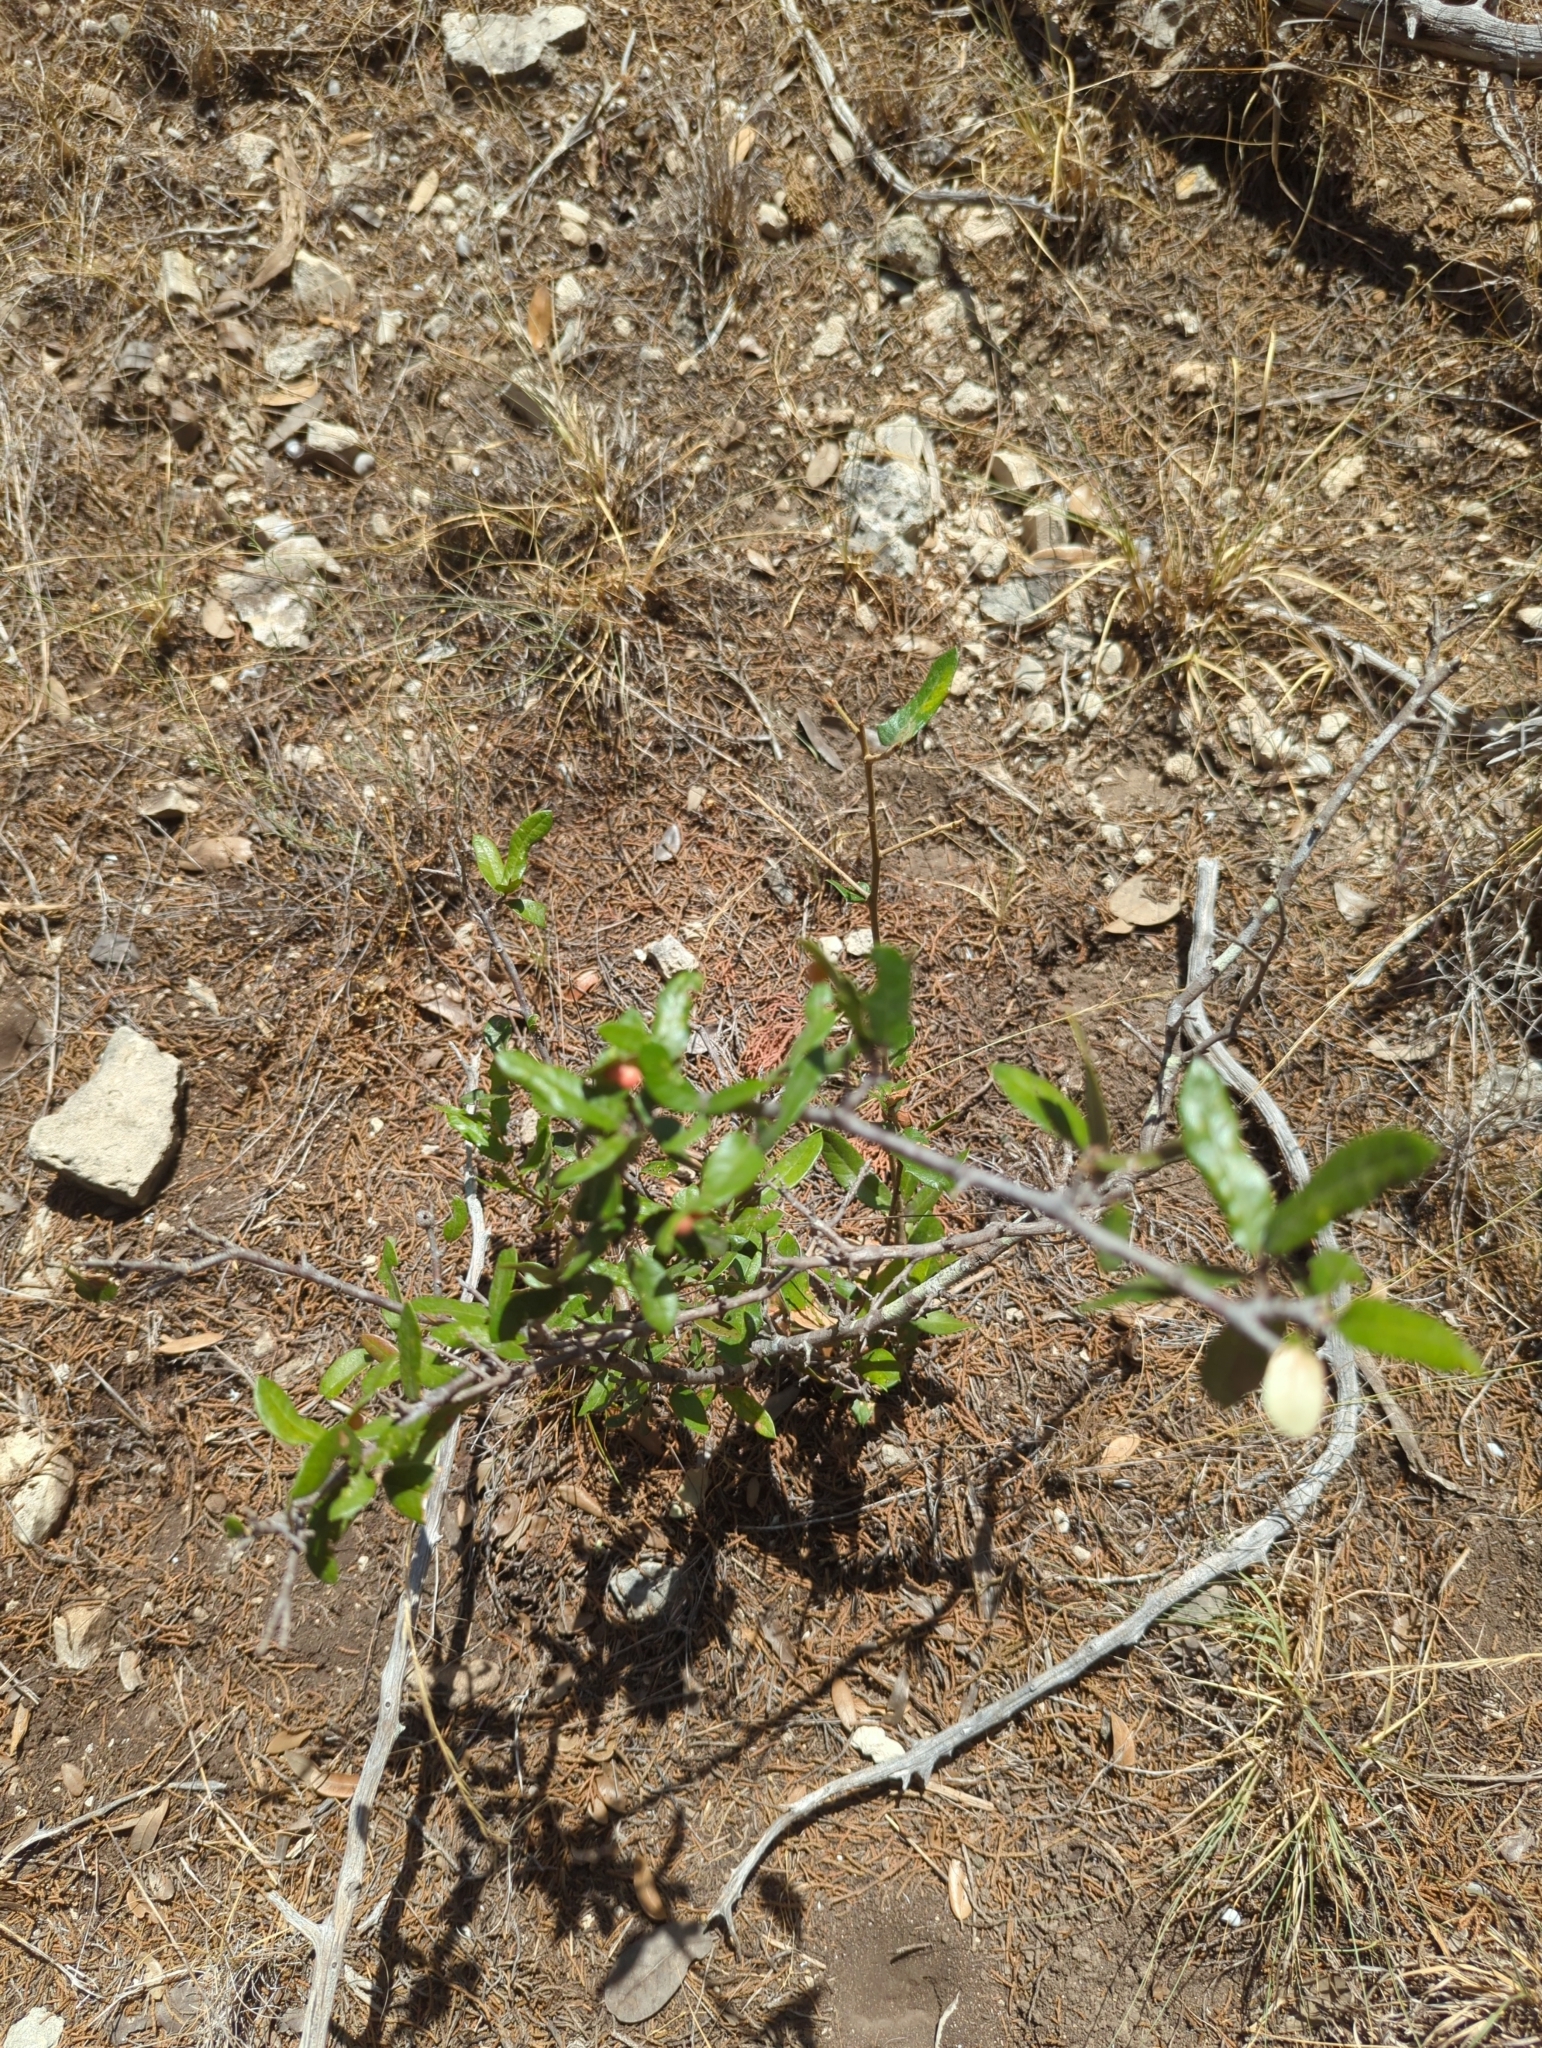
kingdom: Plantae
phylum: Tracheophyta
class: Magnoliopsida
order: Fagales
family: Fagaceae
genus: Quercus
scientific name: Quercus fusiformis
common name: Texas live oak
